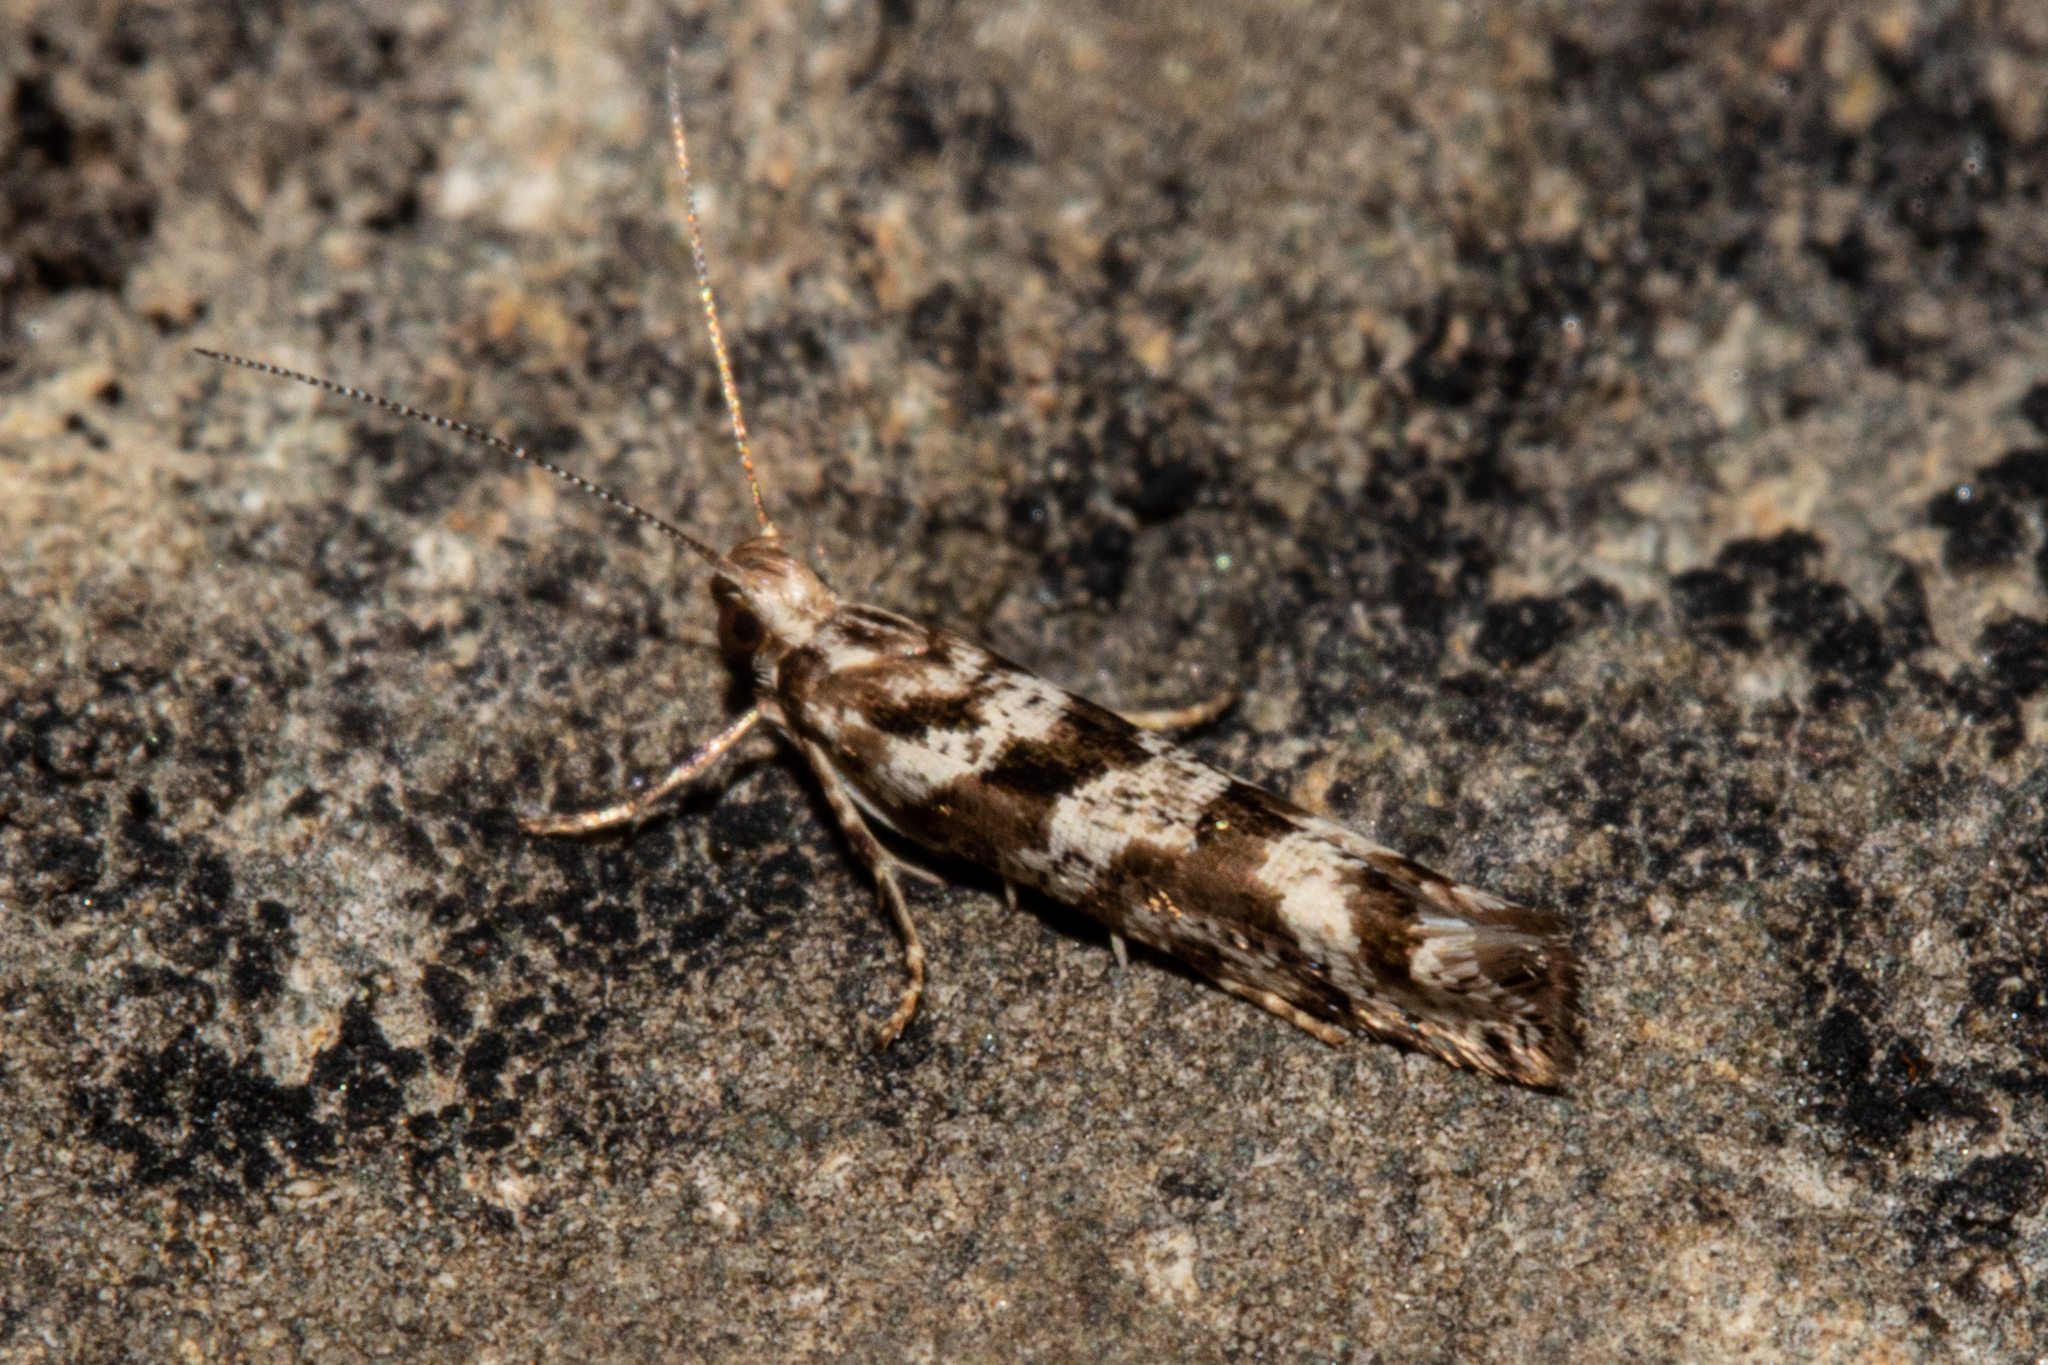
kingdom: Animalia
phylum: Arthropoda
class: Insecta
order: Lepidoptera
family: Glyphipterigidae
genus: Chrysorthenches
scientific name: Chrysorthenches porphyritis
